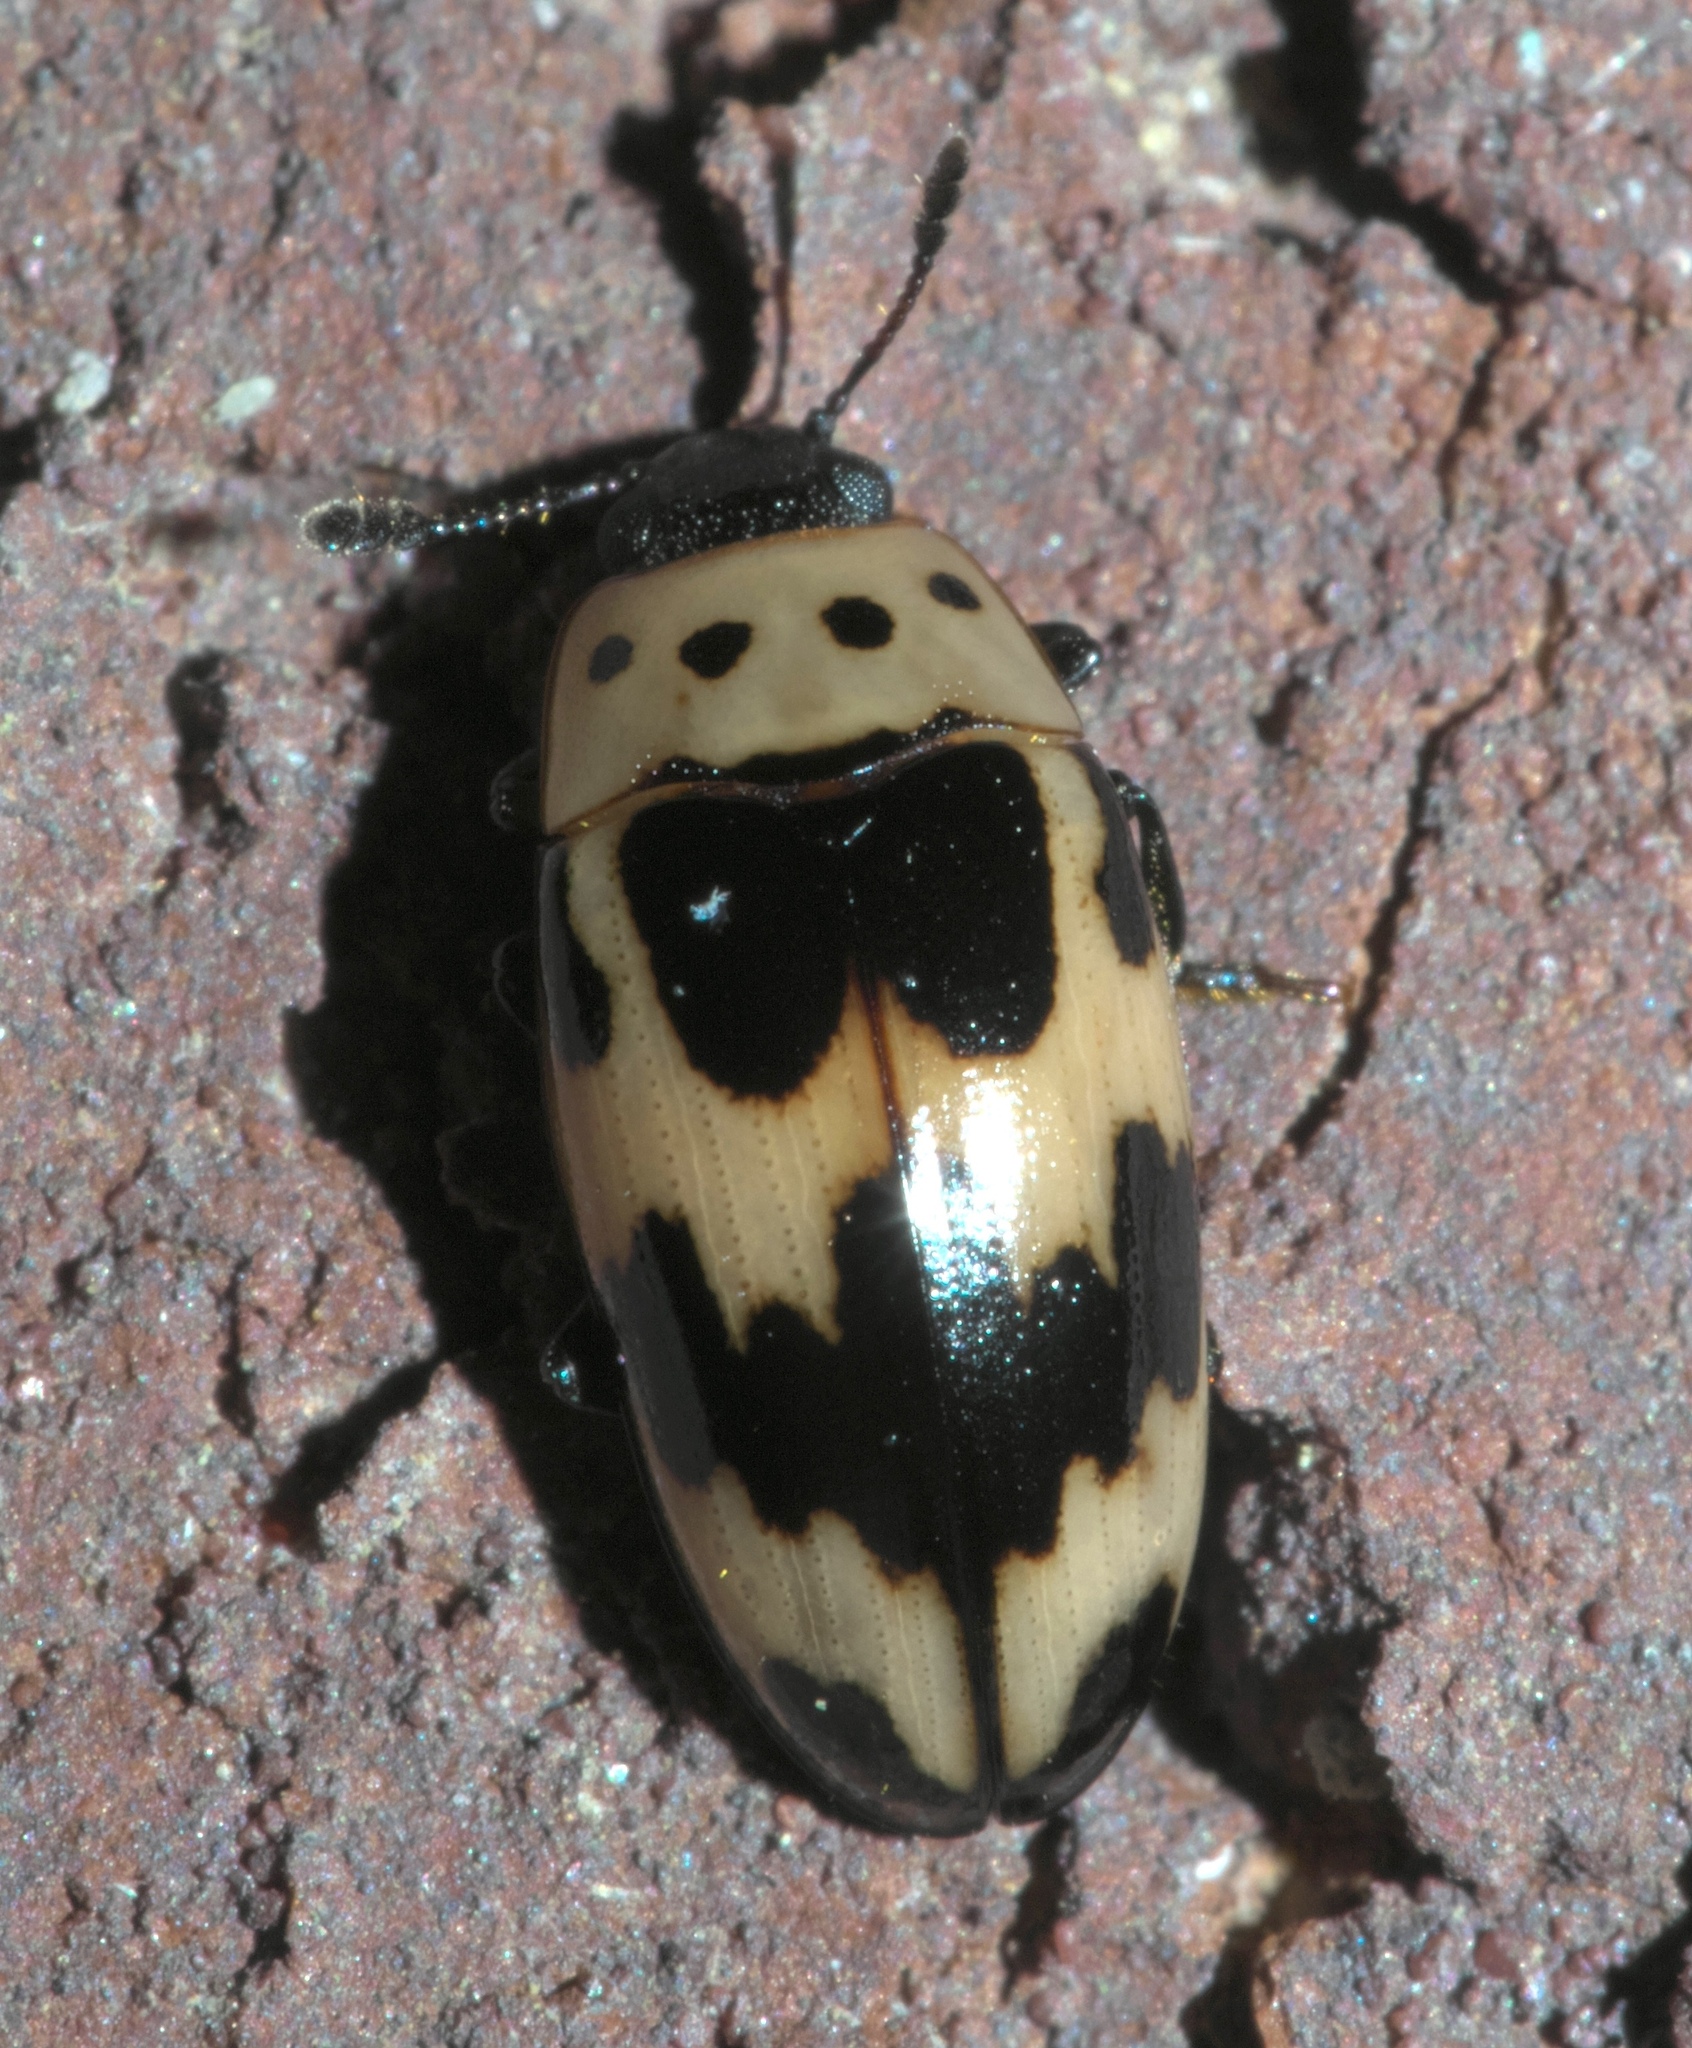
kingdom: Animalia
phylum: Arthropoda
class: Insecta
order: Coleoptera
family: Erotylidae
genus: Ischyrus
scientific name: Ischyrus quadripunctatus
